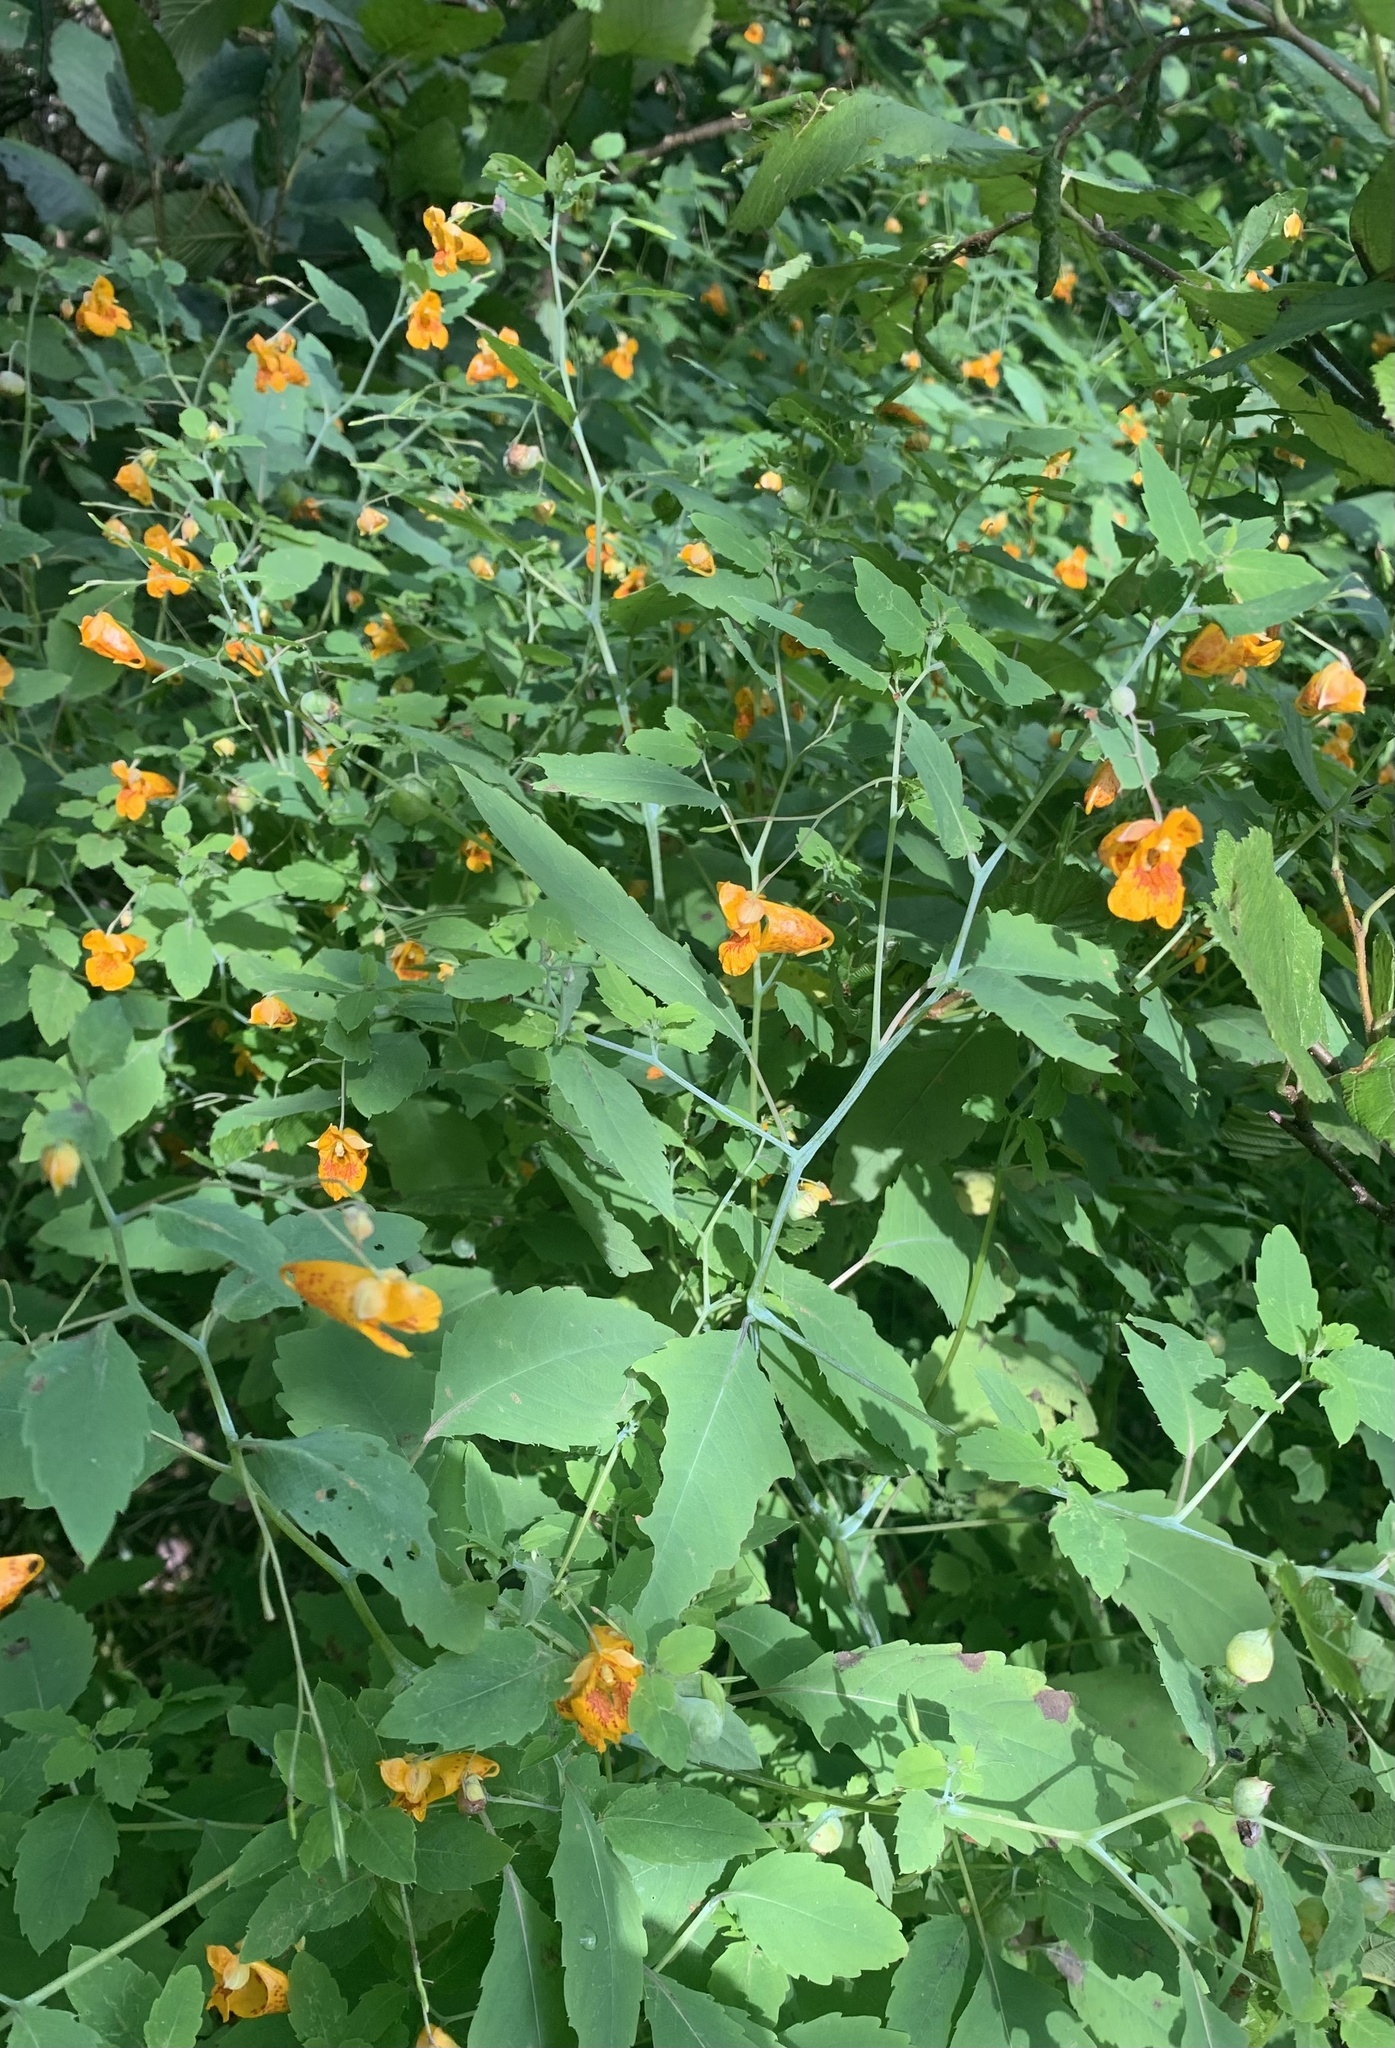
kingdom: Plantae
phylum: Tracheophyta
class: Magnoliopsida
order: Ericales
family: Balsaminaceae
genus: Impatiens
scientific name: Impatiens capensis
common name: Orange balsam
